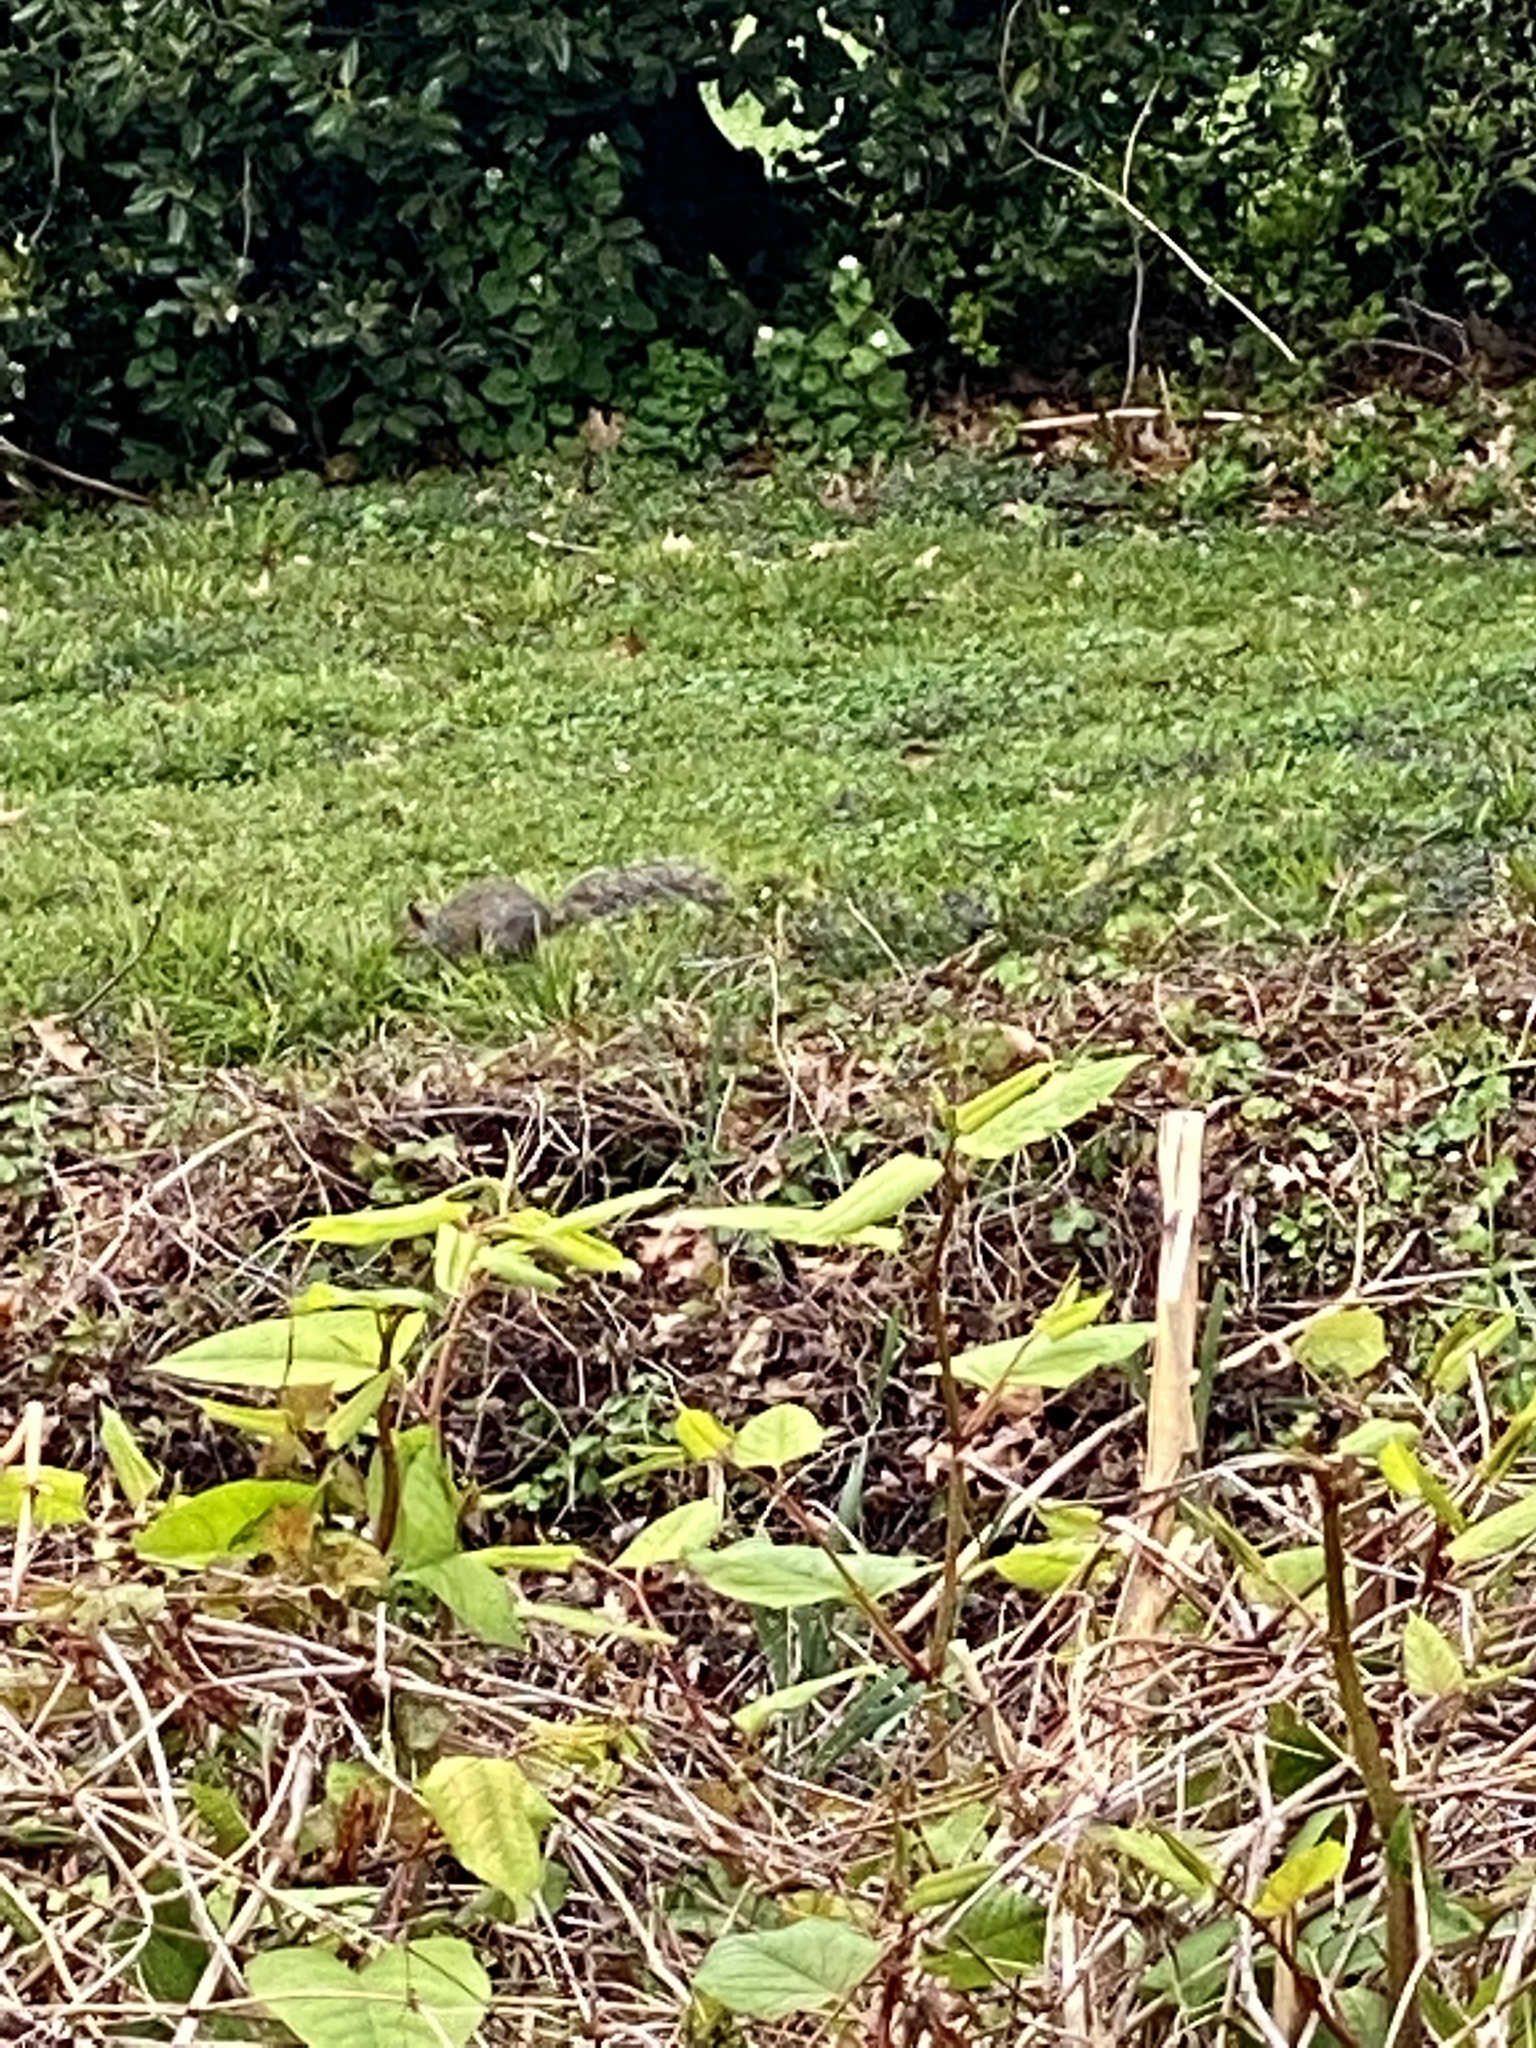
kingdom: Animalia
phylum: Chordata
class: Mammalia
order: Rodentia
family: Sciuridae
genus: Sciurus
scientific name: Sciurus carolinensis
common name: Eastern gray squirrel
